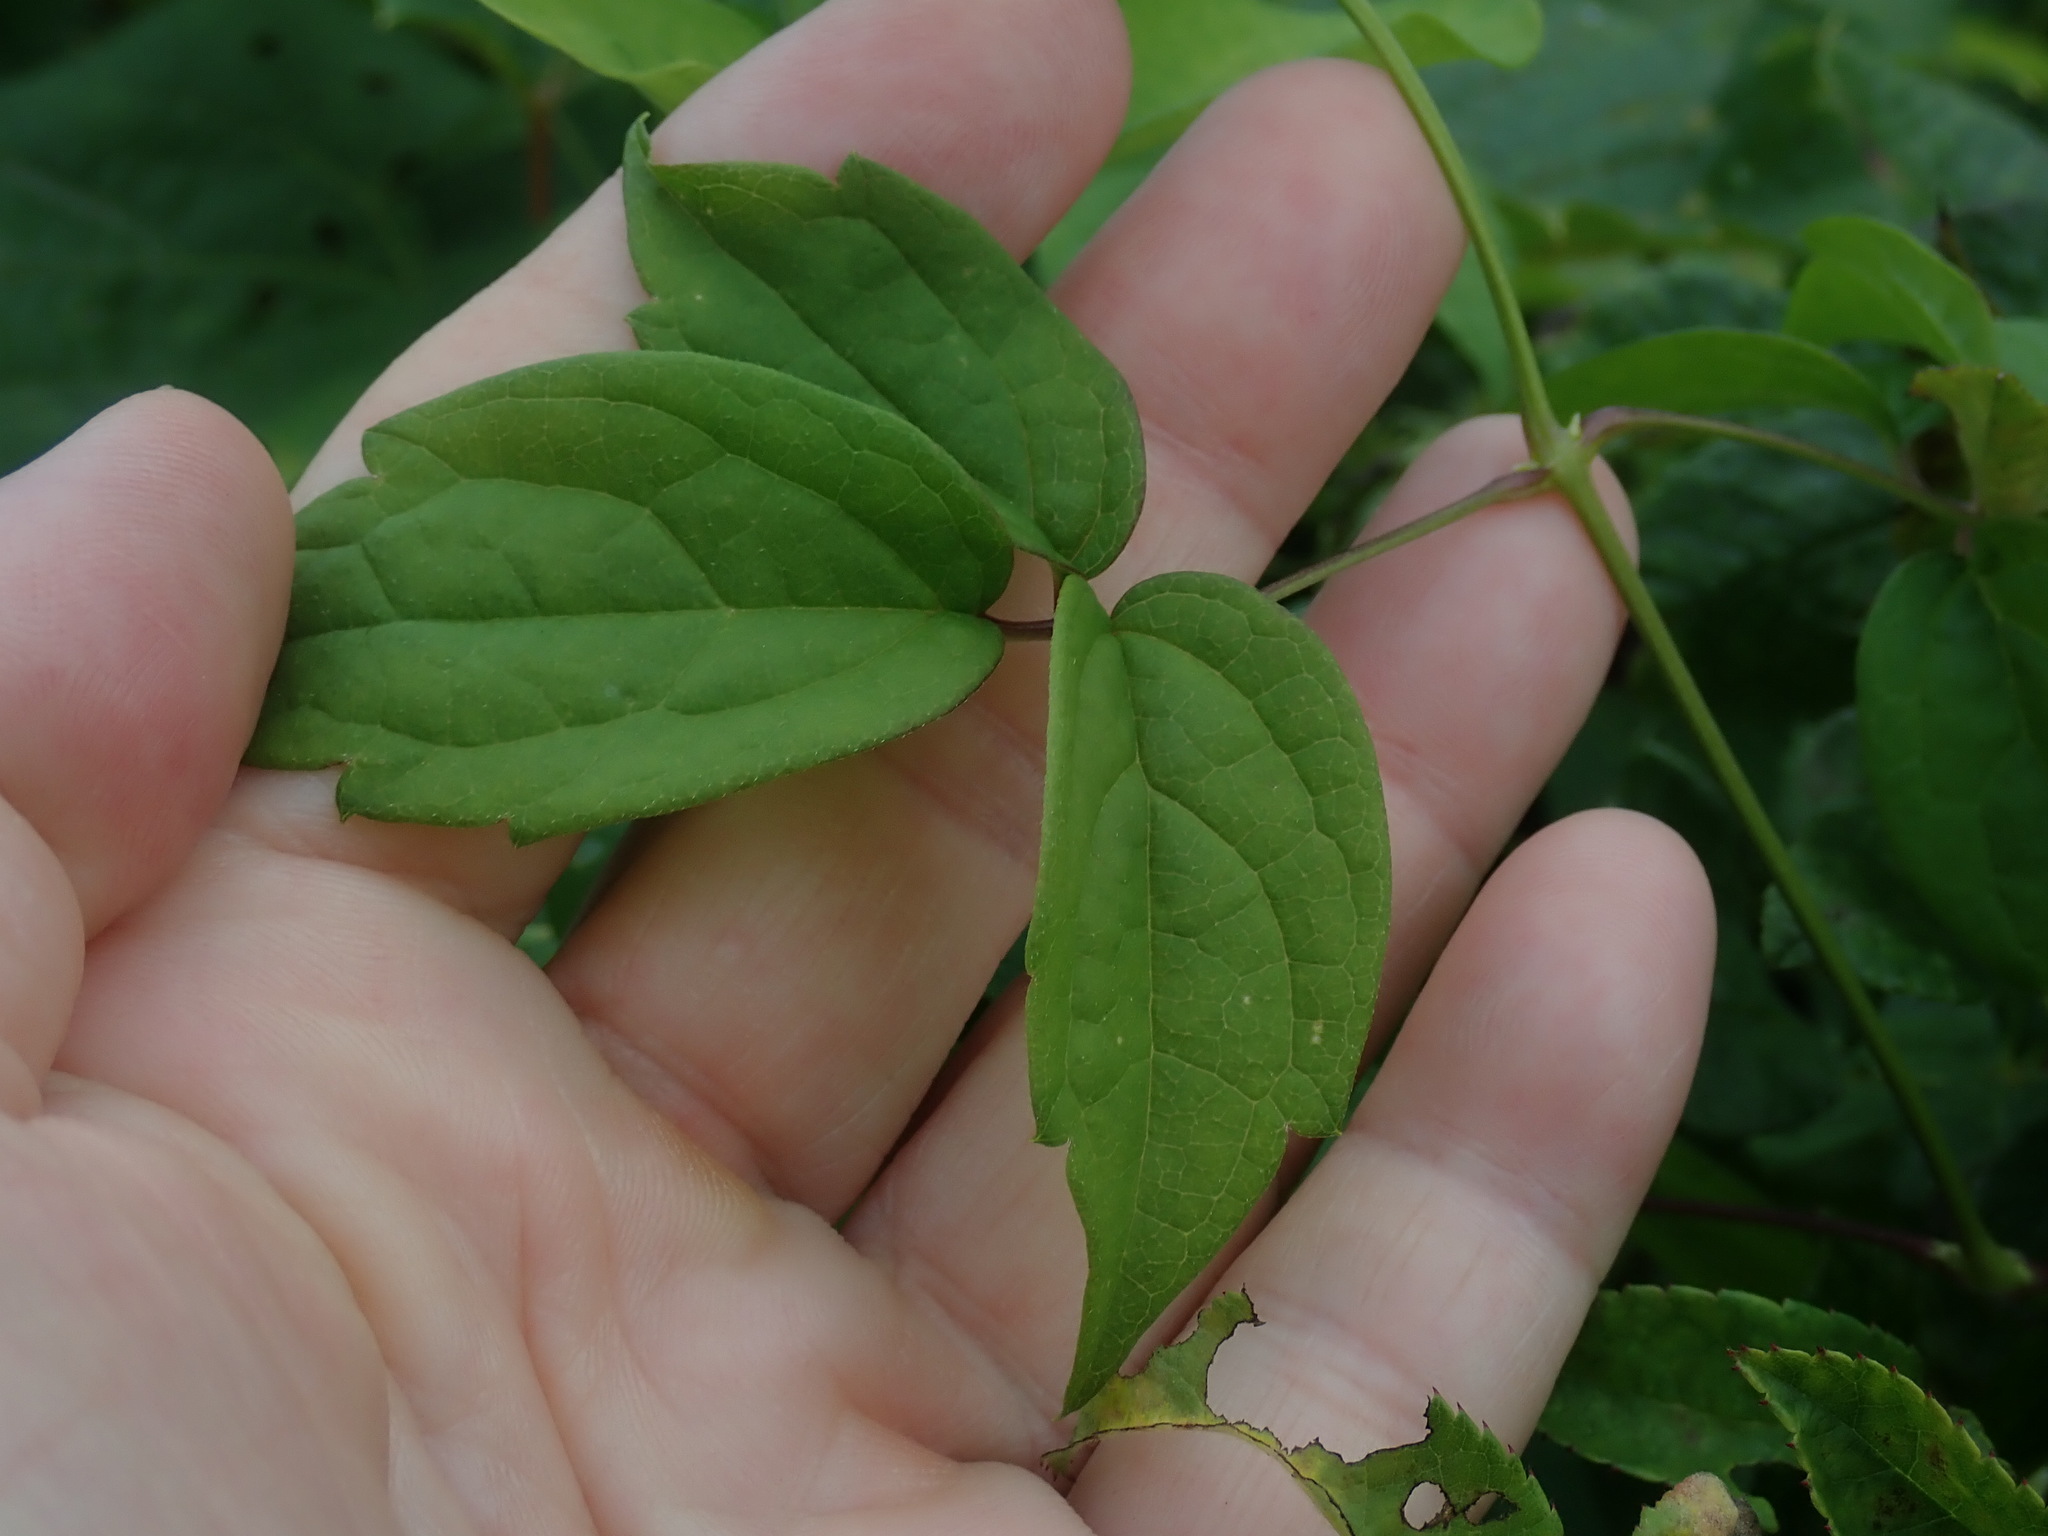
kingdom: Plantae
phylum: Tracheophyta
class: Magnoliopsida
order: Ranunculales
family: Ranunculaceae
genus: Clematis
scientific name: Clematis virginiana
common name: Virgin's-bower
